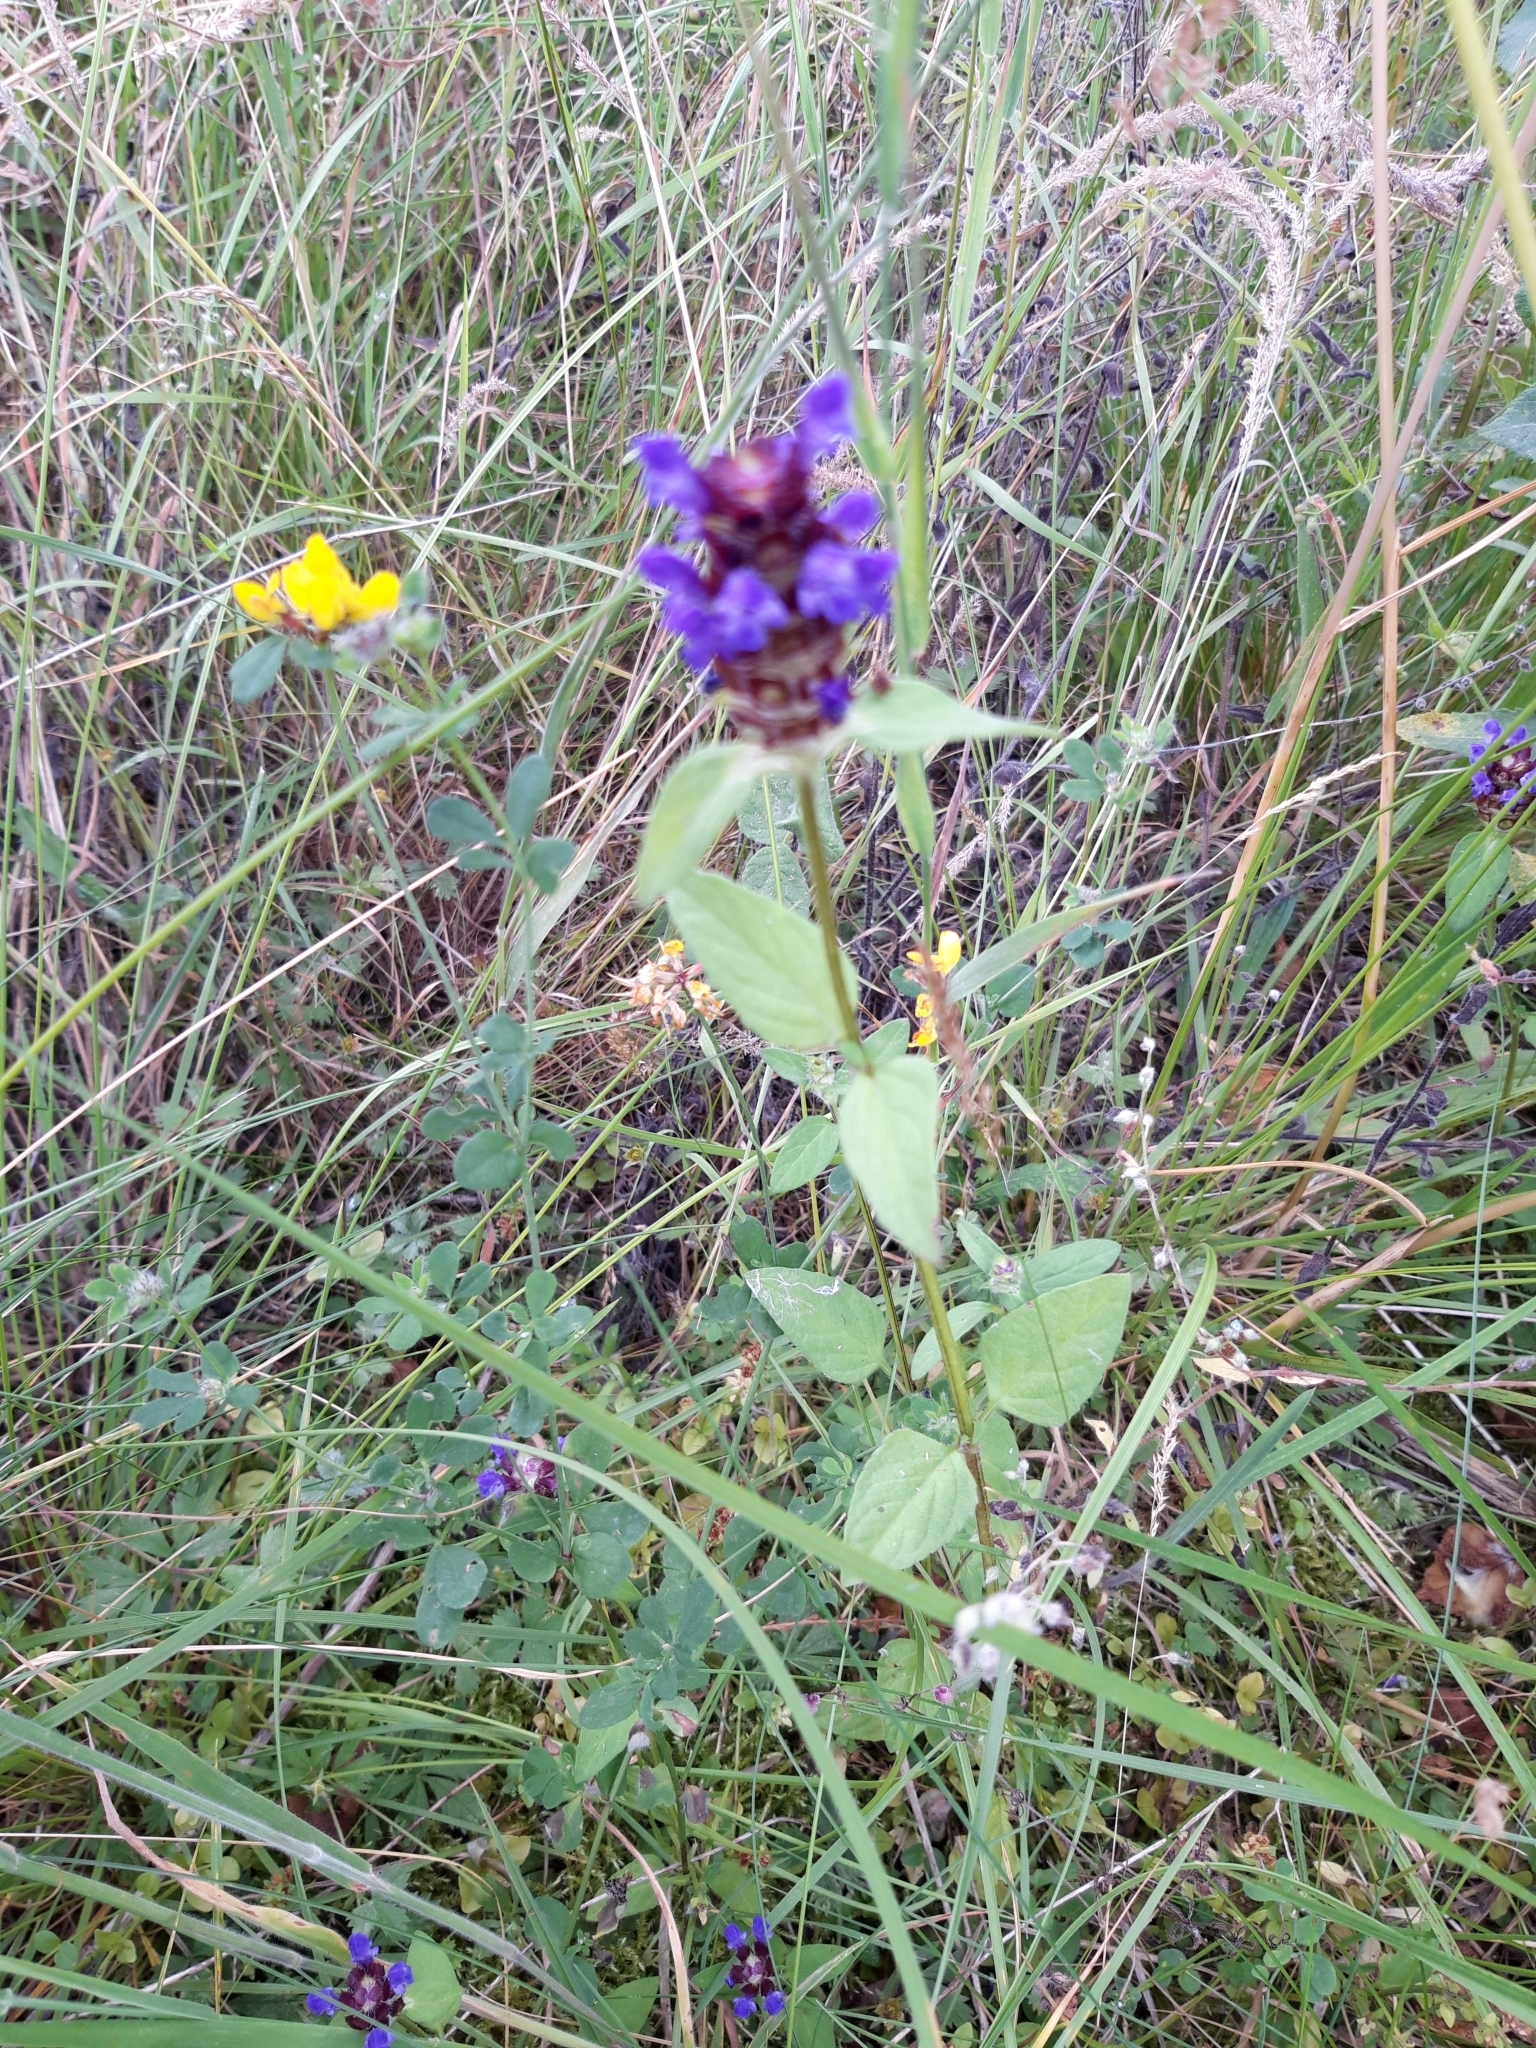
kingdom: Plantae
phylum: Tracheophyta
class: Magnoliopsida
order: Lamiales
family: Lamiaceae
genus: Prunella
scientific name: Prunella vulgaris
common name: Heal-all
